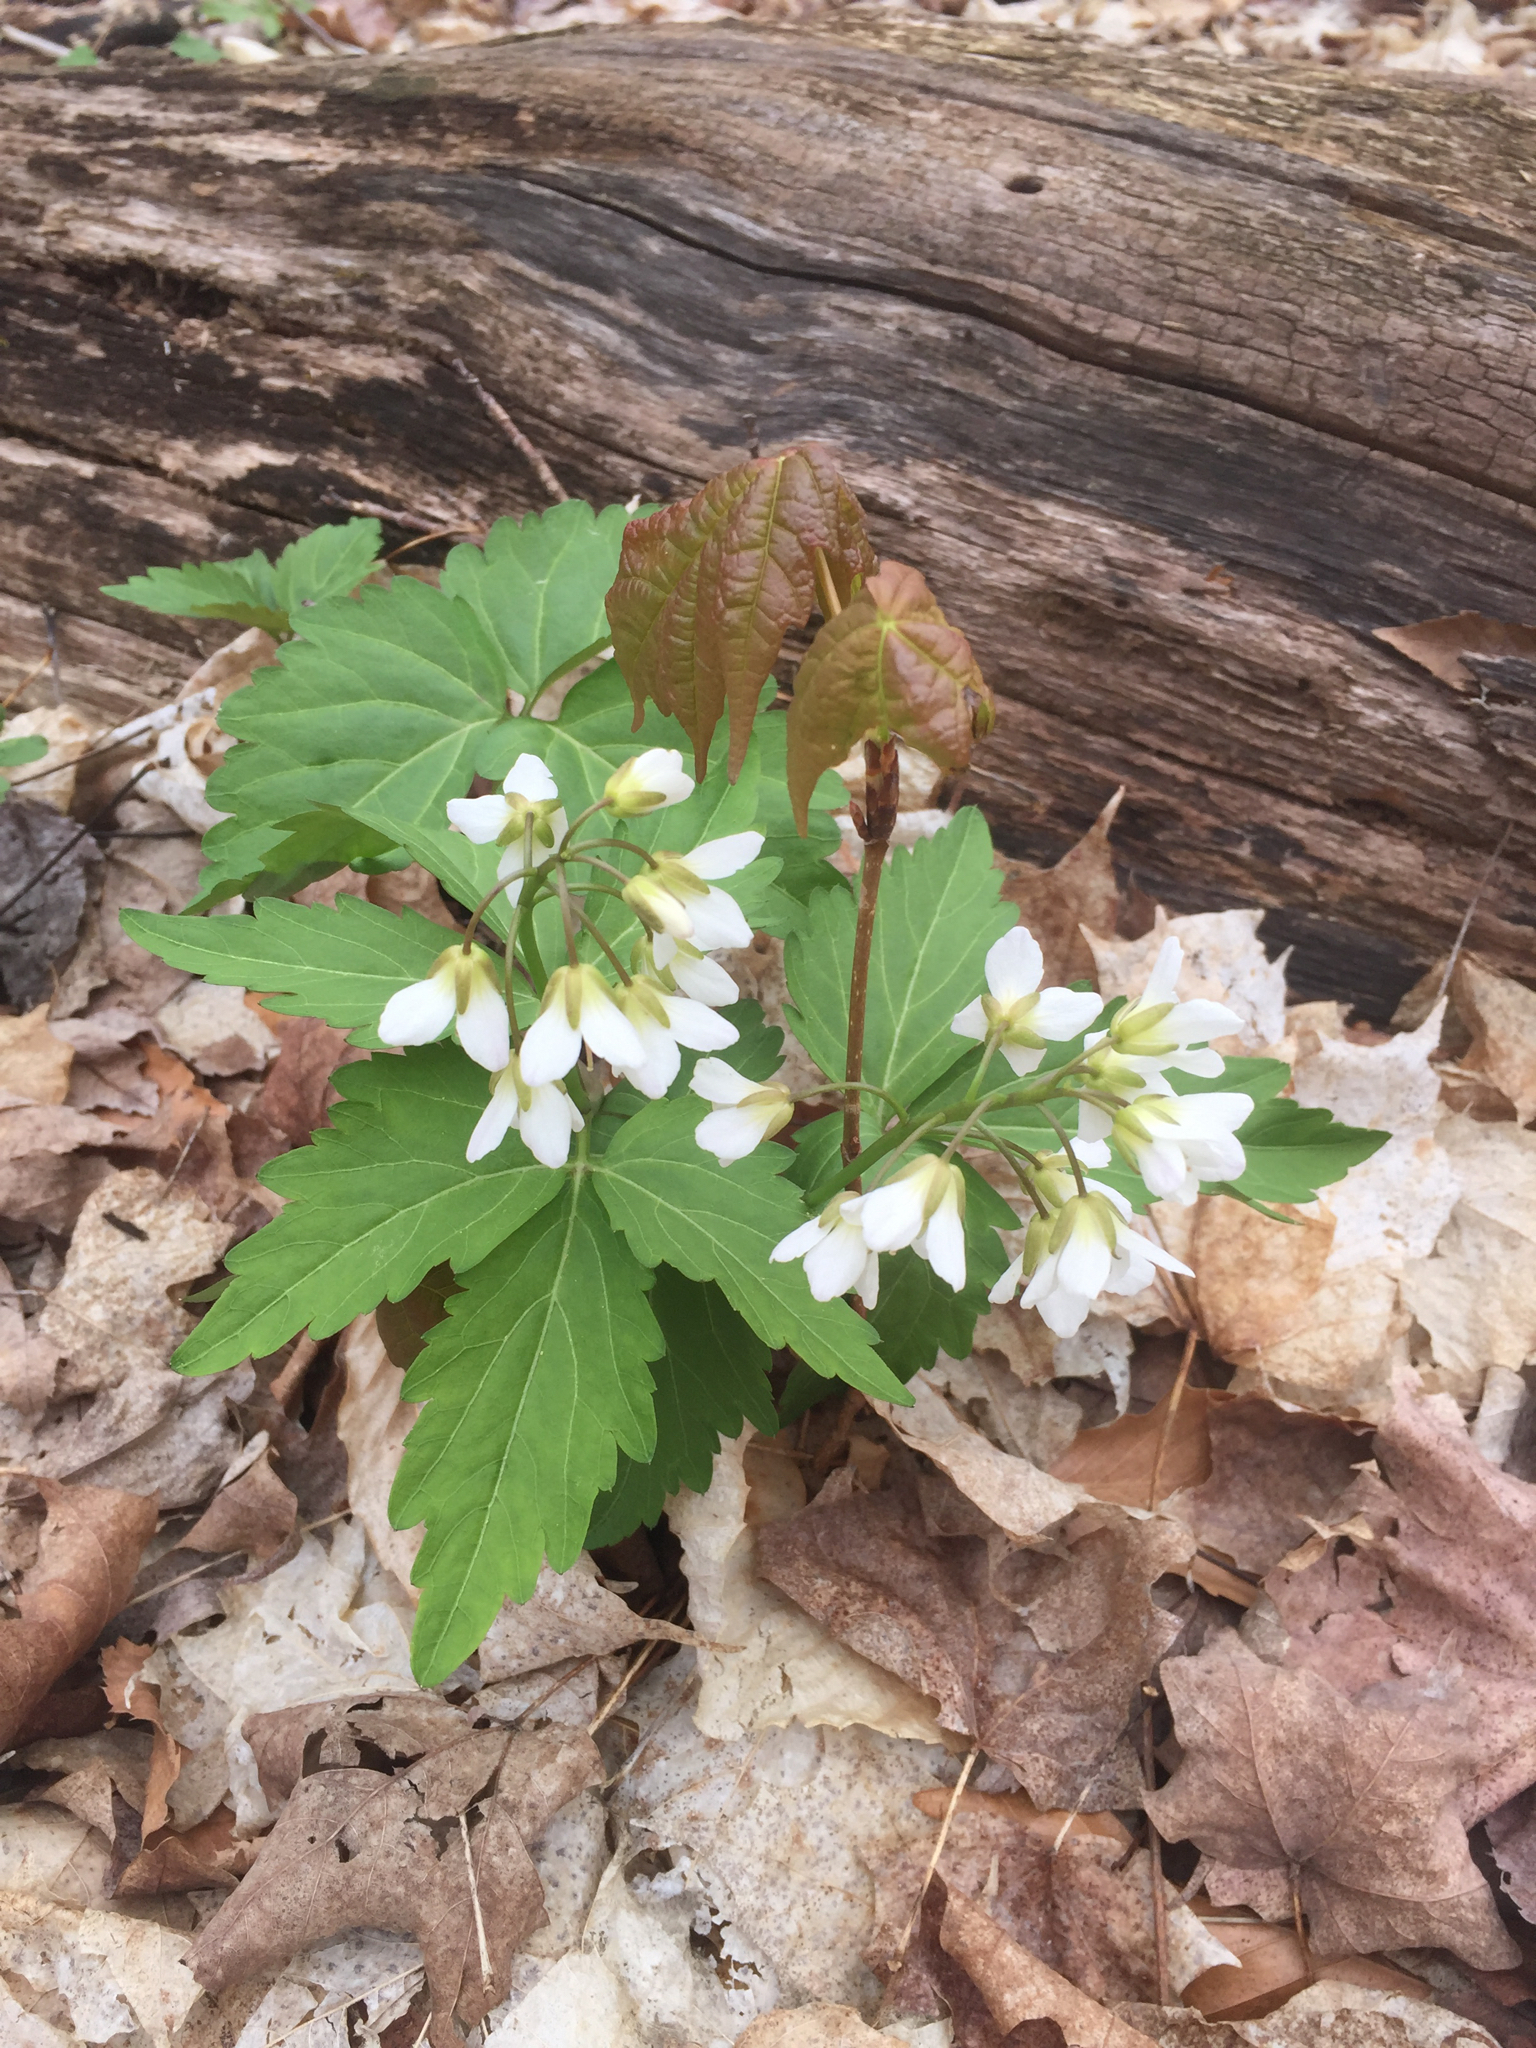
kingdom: Plantae
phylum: Tracheophyta
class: Magnoliopsida
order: Brassicales
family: Brassicaceae
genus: Cardamine
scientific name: Cardamine diphylla
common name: Broad-leaved toothwort
